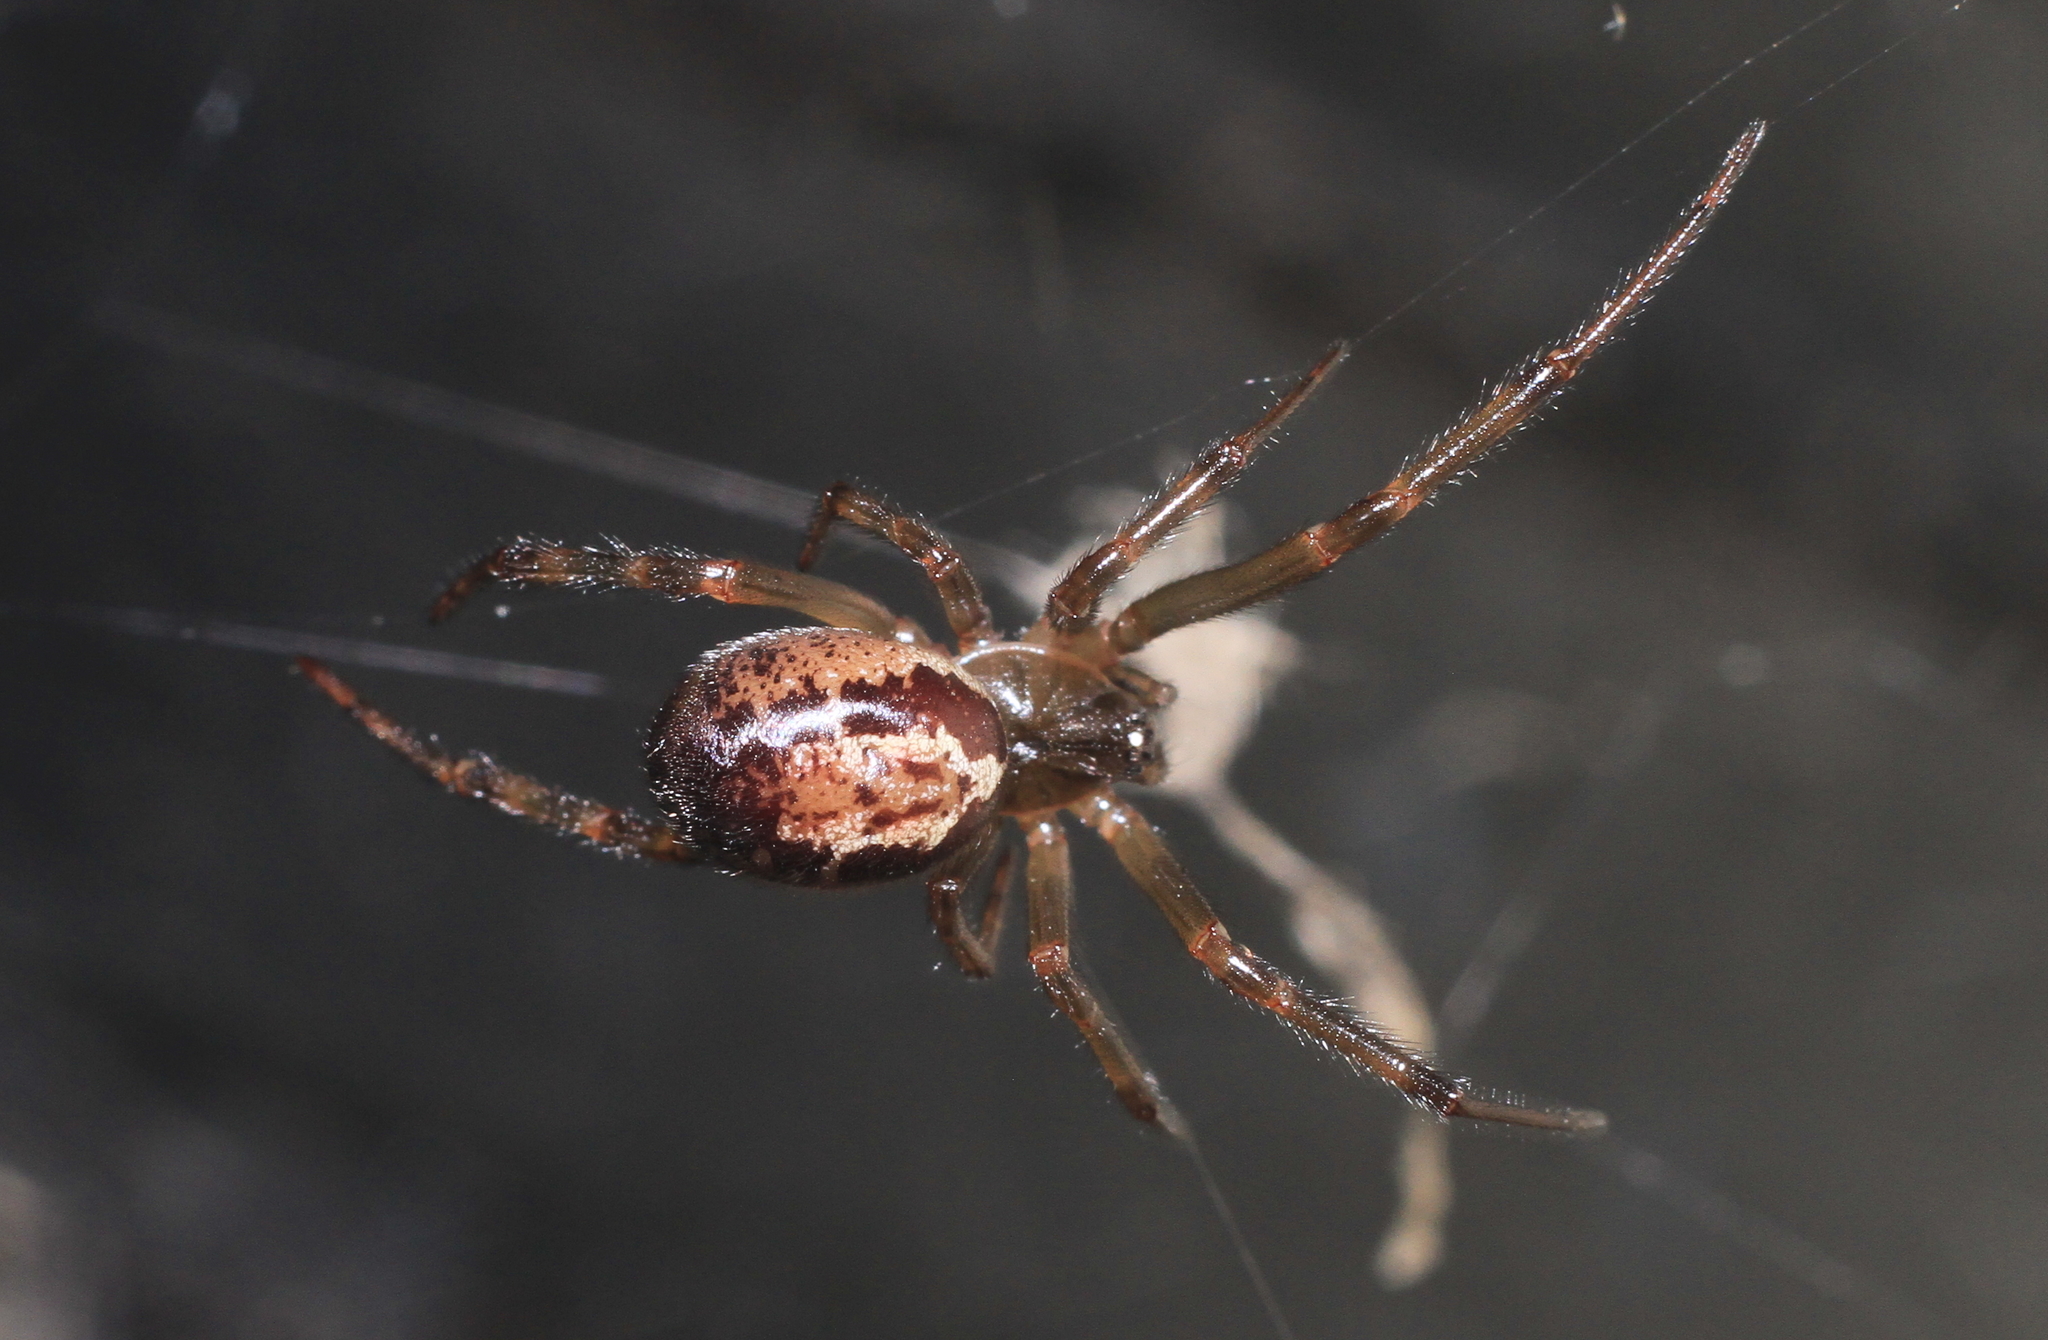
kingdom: Animalia
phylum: Arthropoda
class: Arachnida
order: Araneae
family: Theridiidae
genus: Steatoda
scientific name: Steatoda nobilis
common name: Cobweb weaver
